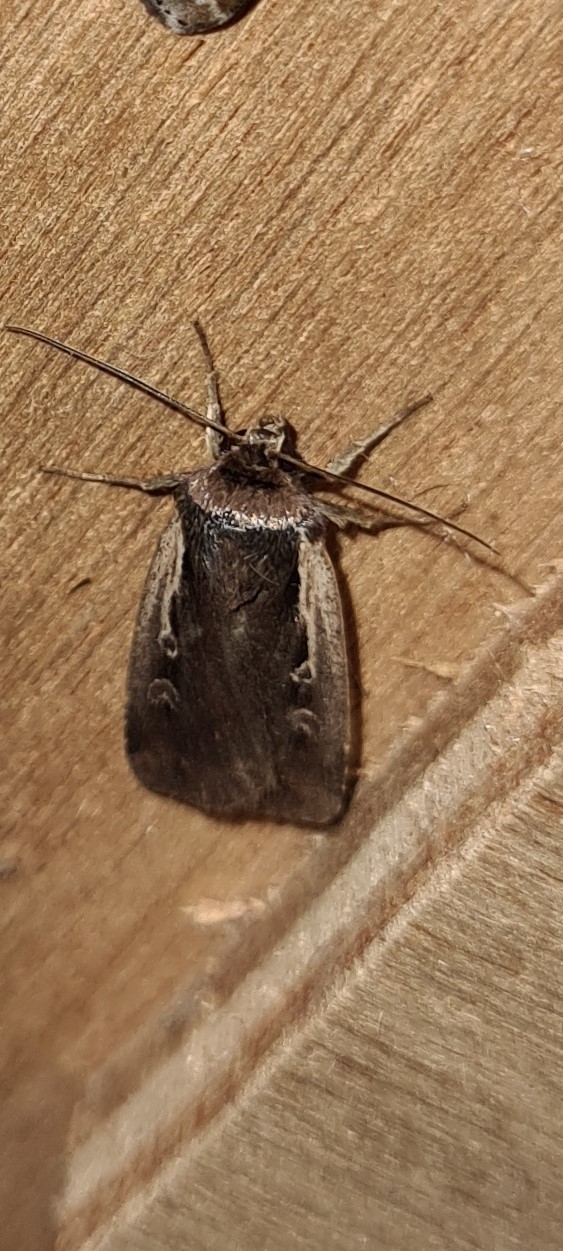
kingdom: Animalia
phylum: Arthropoda
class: Insecta
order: Lepidoptera
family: Noctuidae
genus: Ochropleura
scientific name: Ochropleura plecta
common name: Flame shoulder
